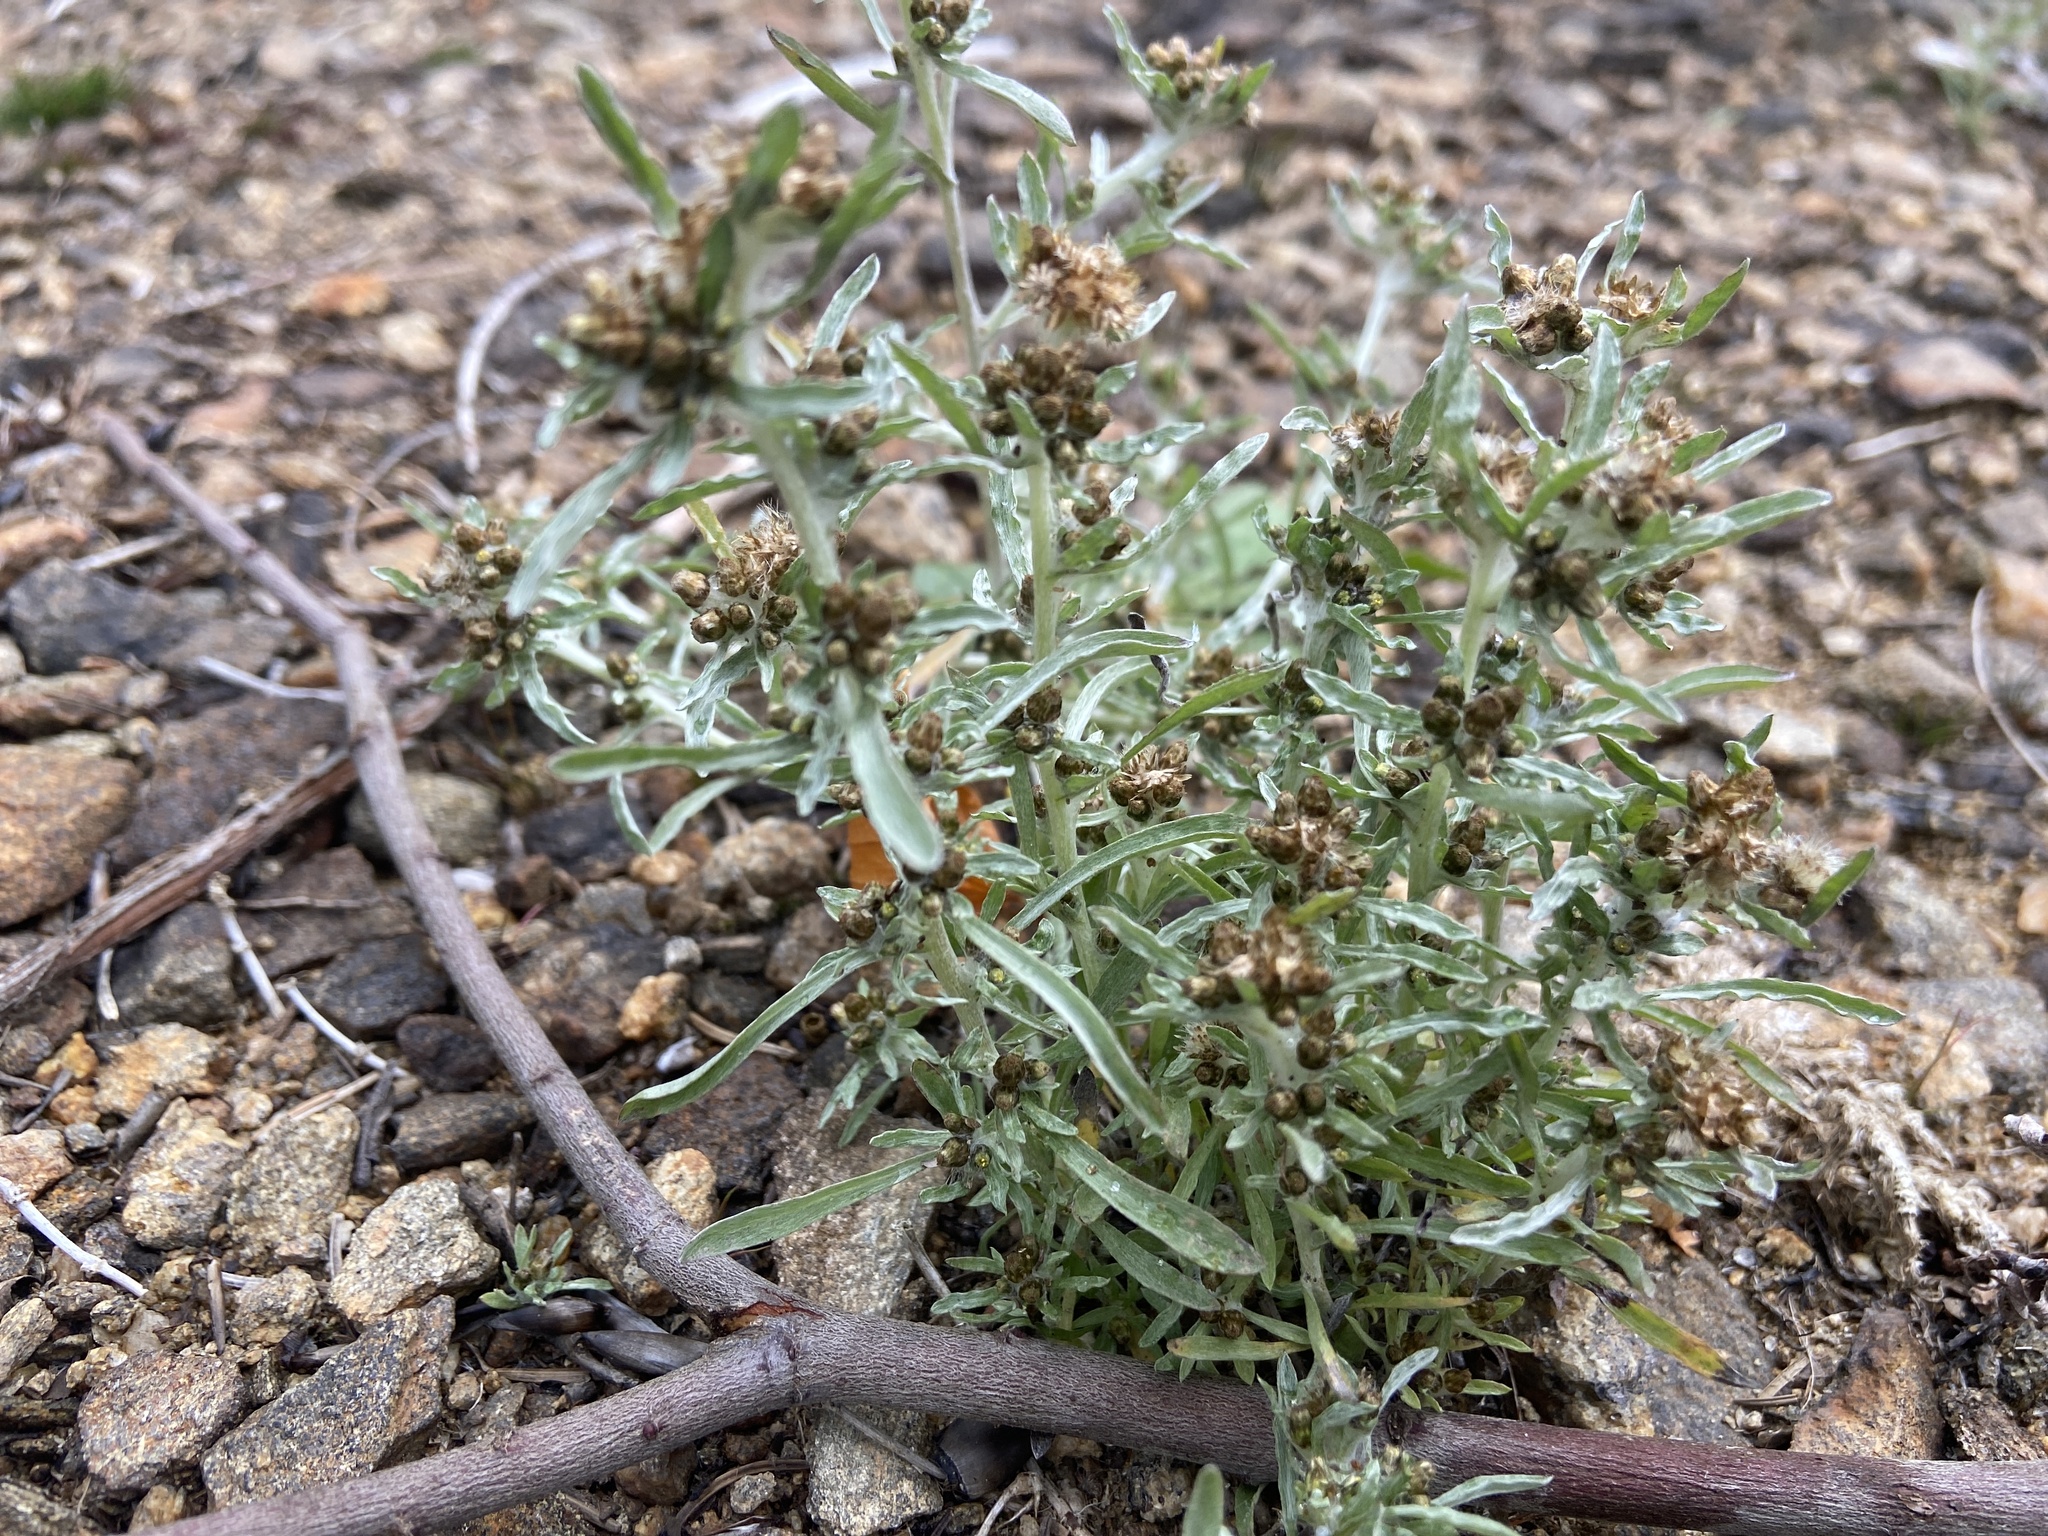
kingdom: Plantae
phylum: Tracheophyta
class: Magnoliopsida
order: Asterales
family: Asteraceae
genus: Gnaphalium
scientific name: Gnaphalium uliginosum
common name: Marsh cudweed
